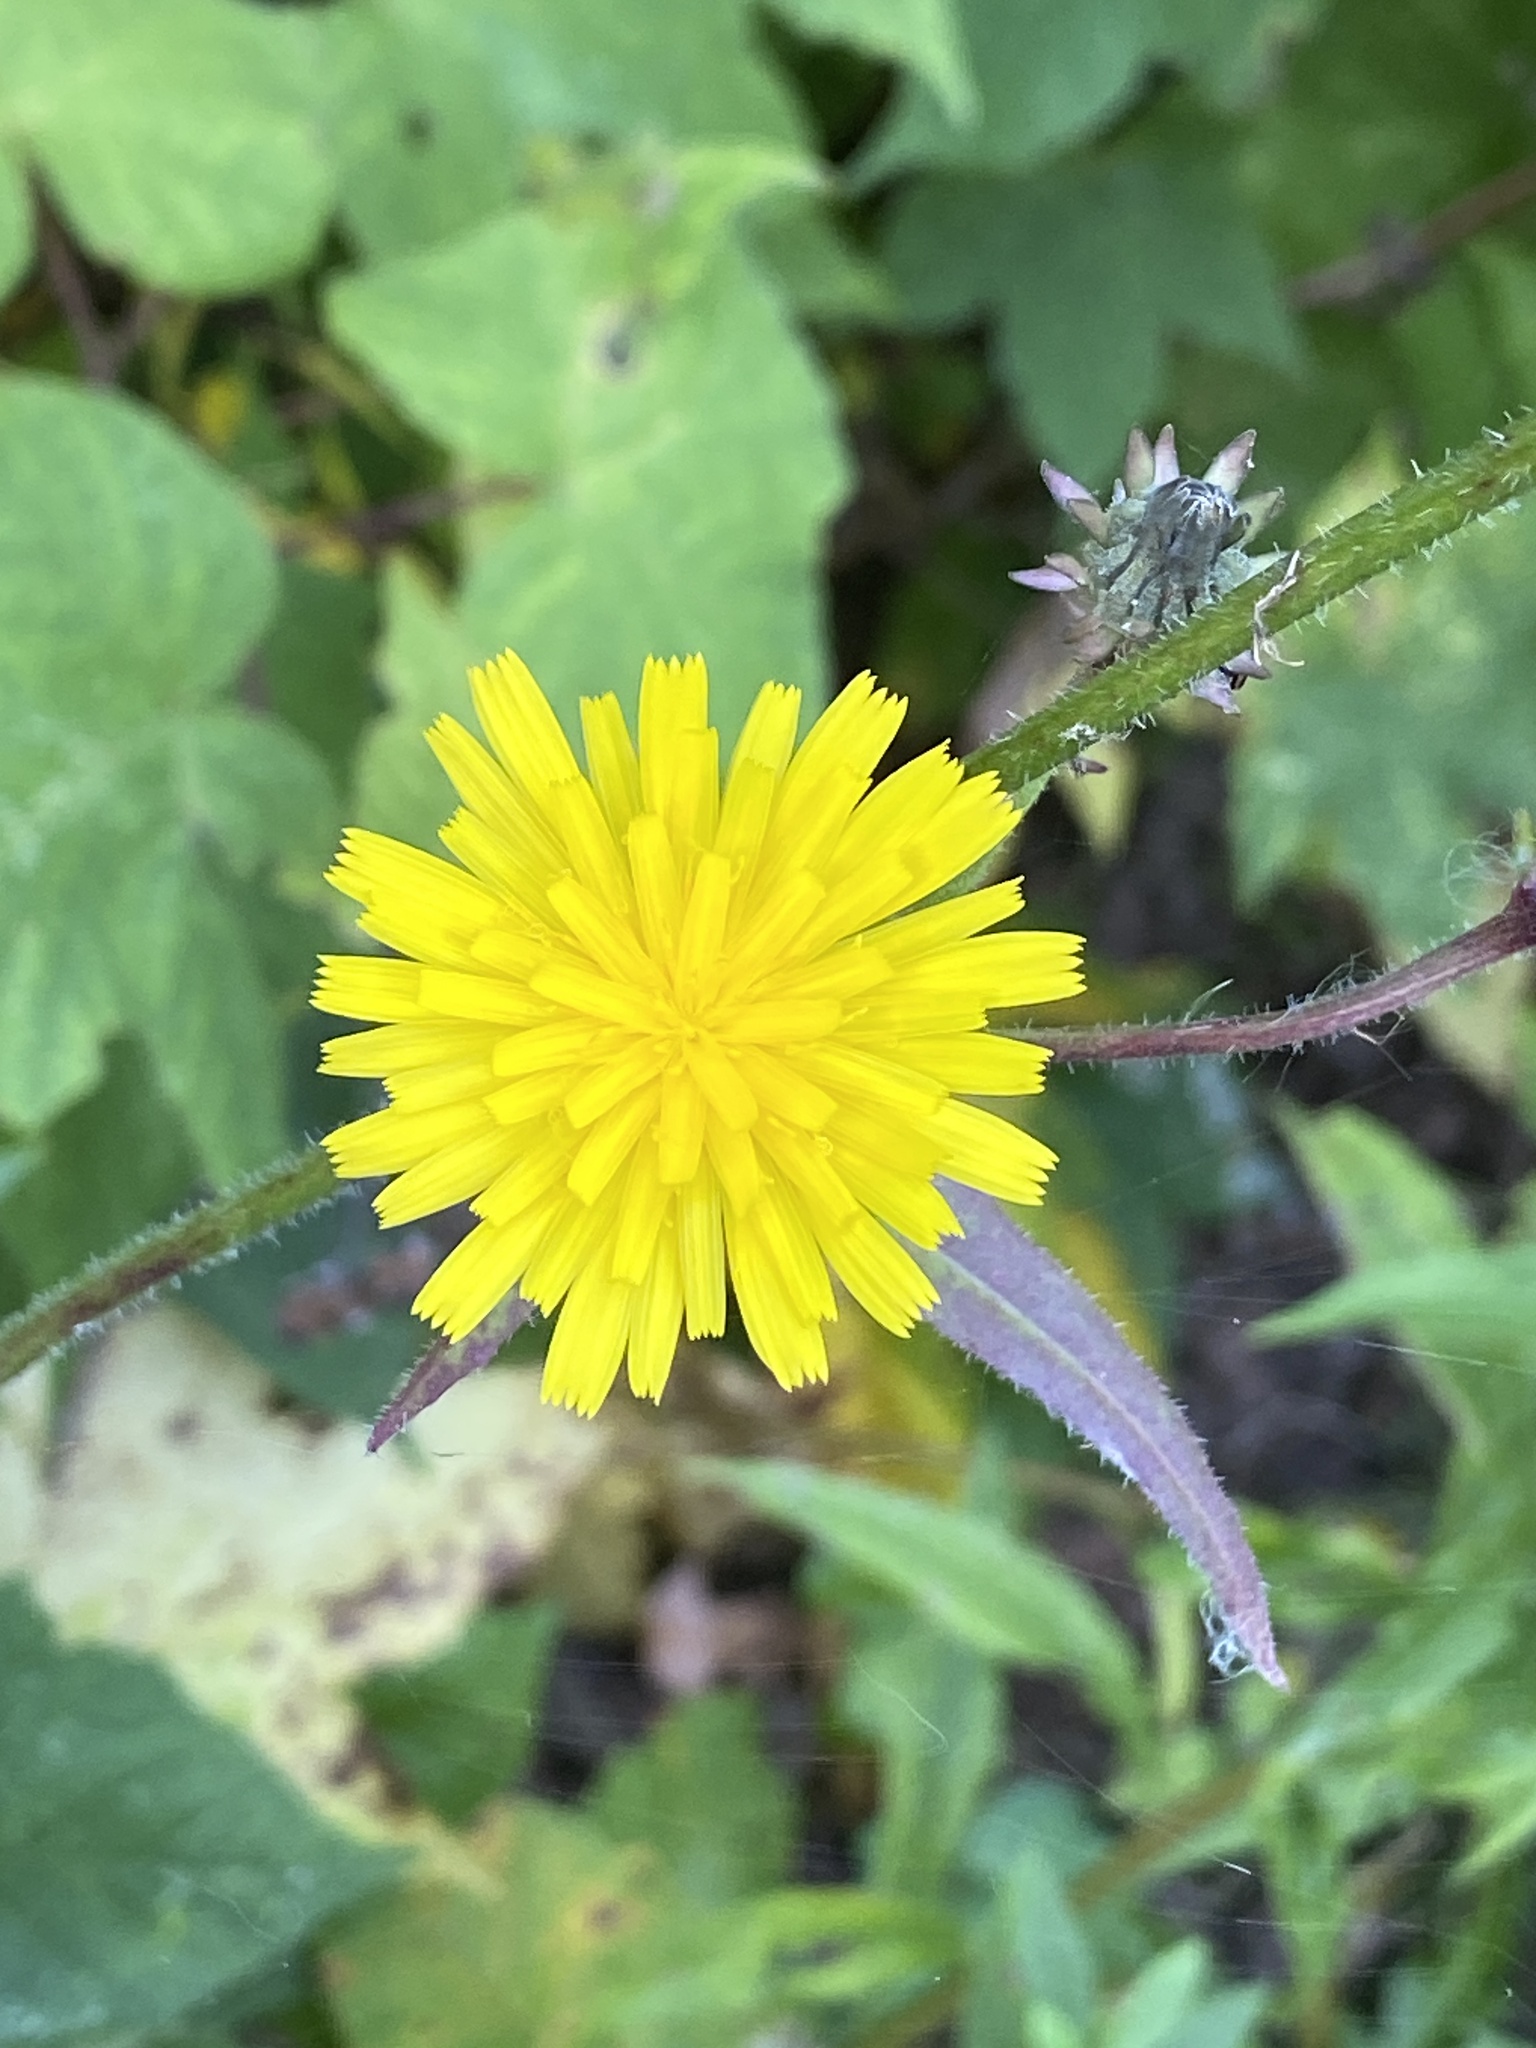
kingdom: Plantae
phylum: Tracheophyta
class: Magnoliopsida
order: Asterales
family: Asteraceae
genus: Picris
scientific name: Picris hieracioides
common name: Hawkweed oxtongue
